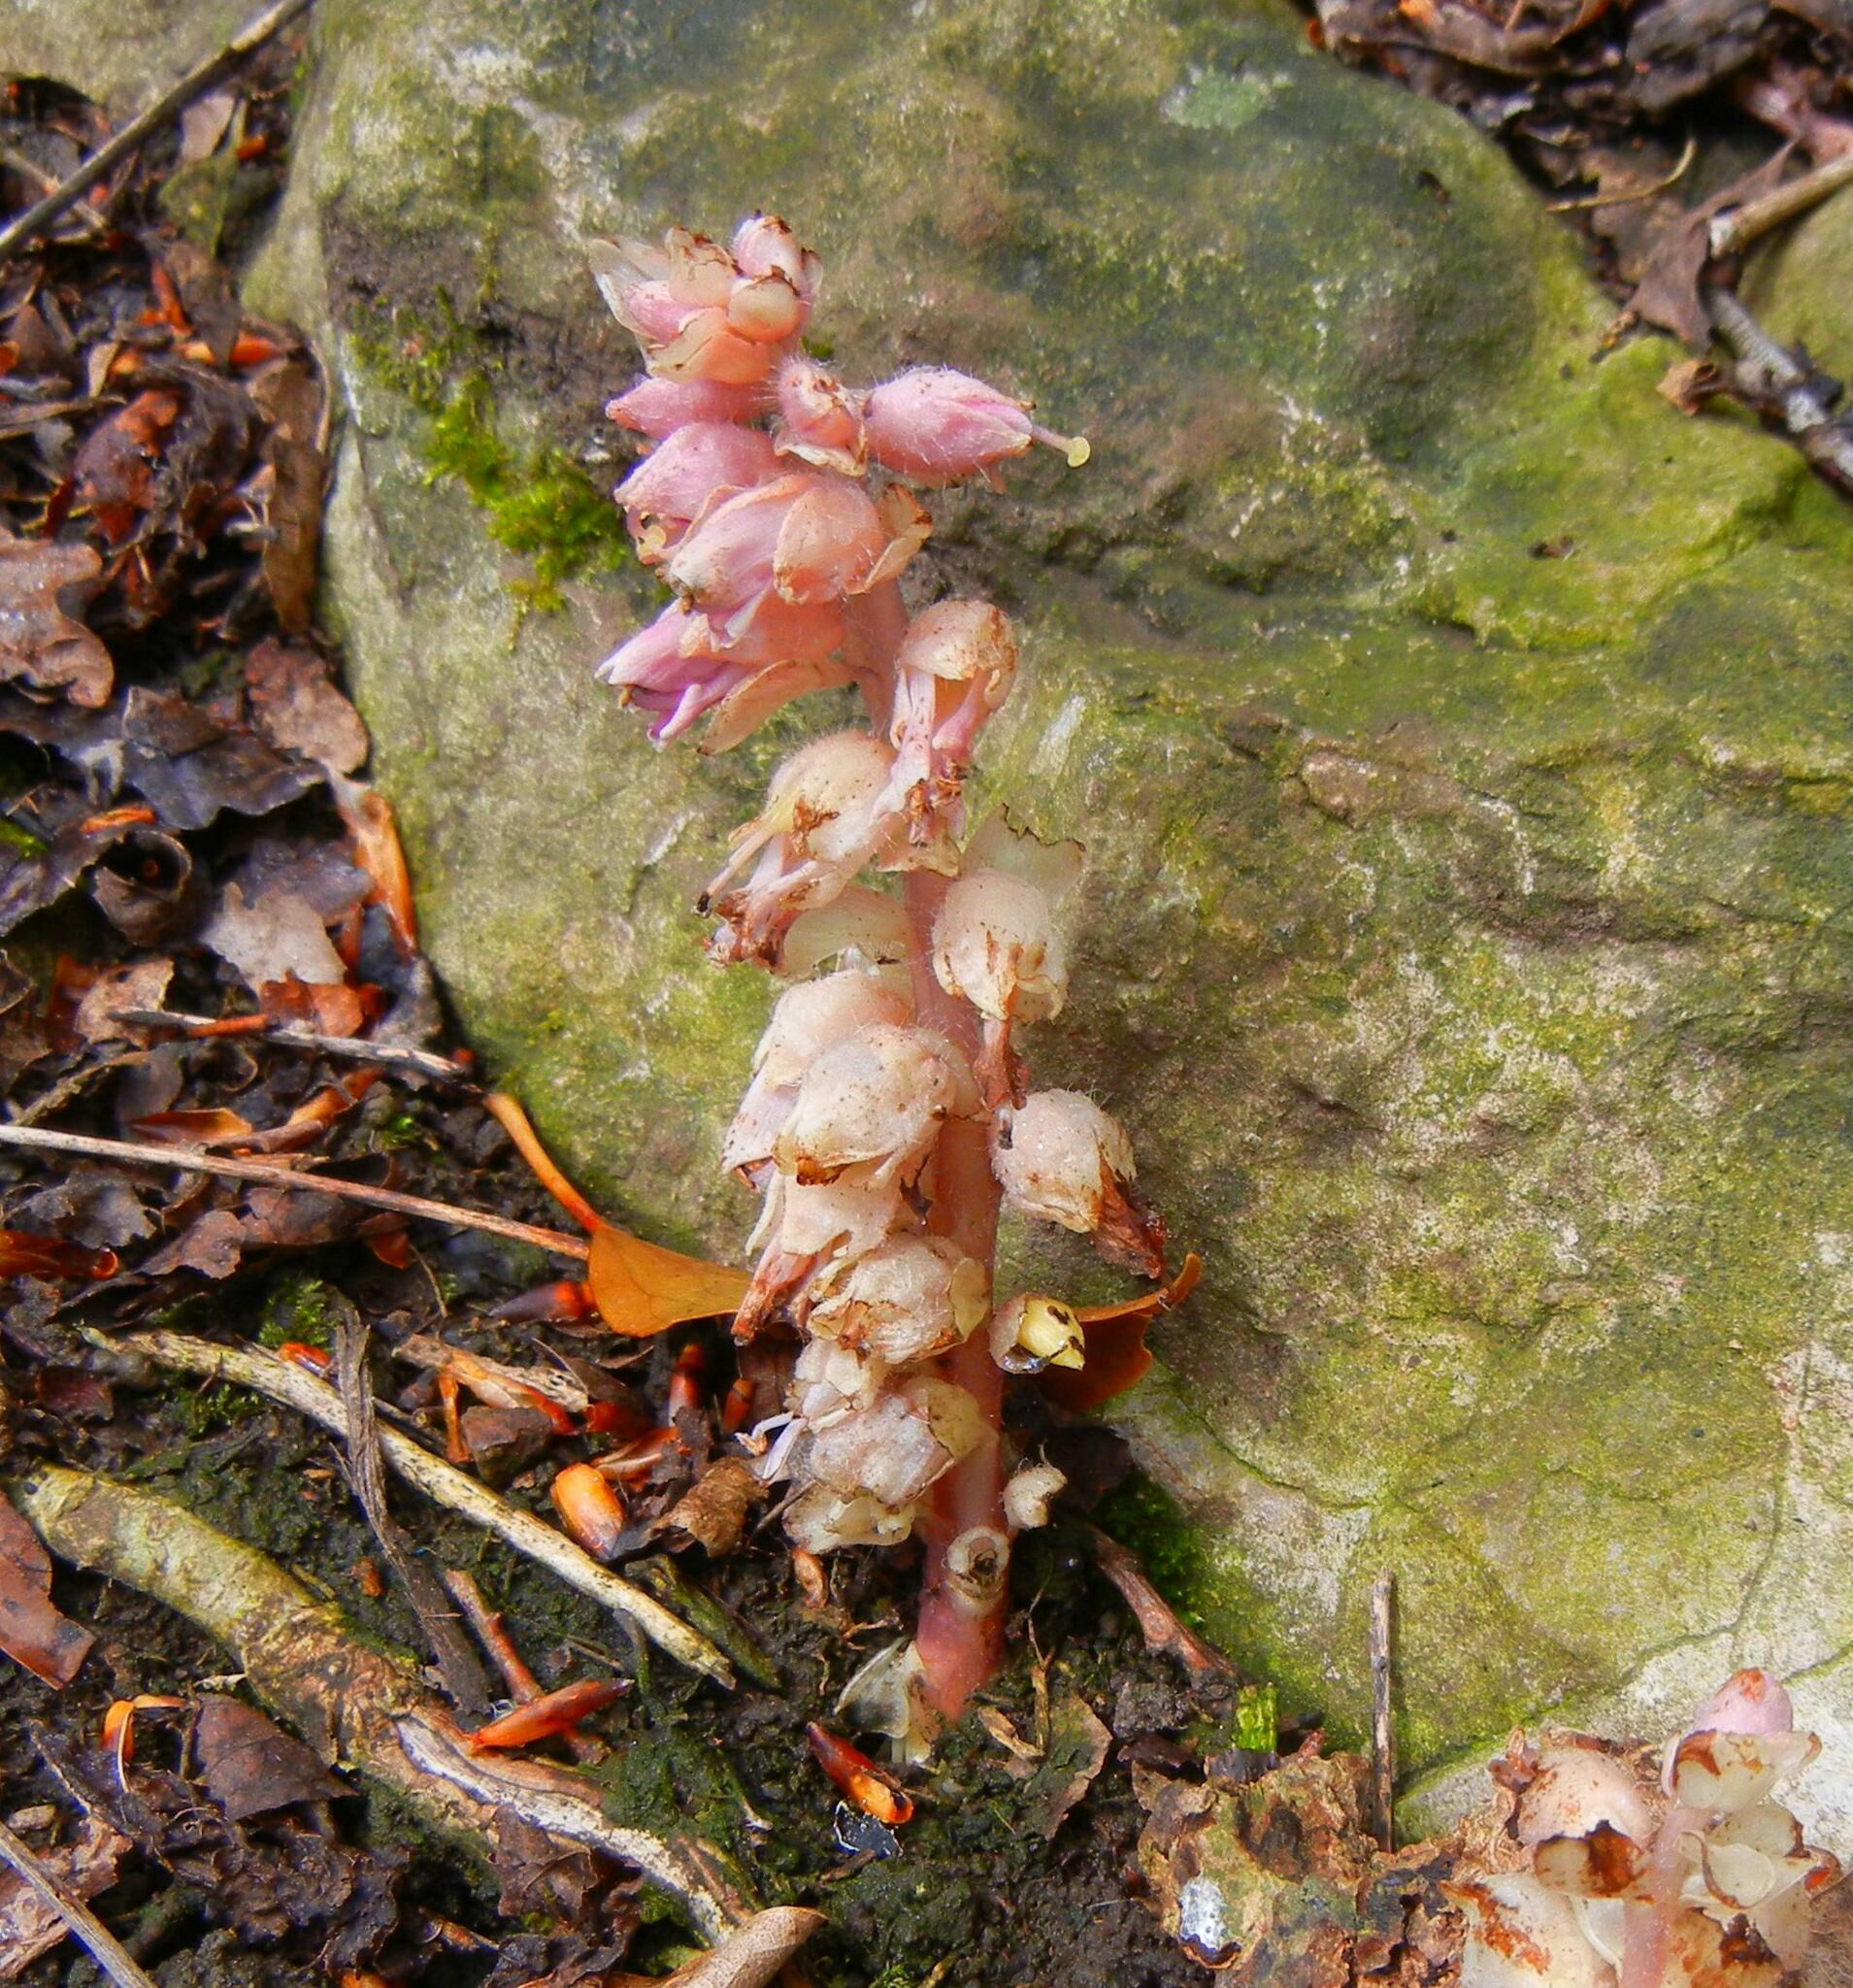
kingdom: Plantae
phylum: Tracheophyta
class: Magnoliopsida
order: Lamiales
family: Orobanchaceae
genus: Lathraea
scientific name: Lathraea squamaria
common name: Toothwort
